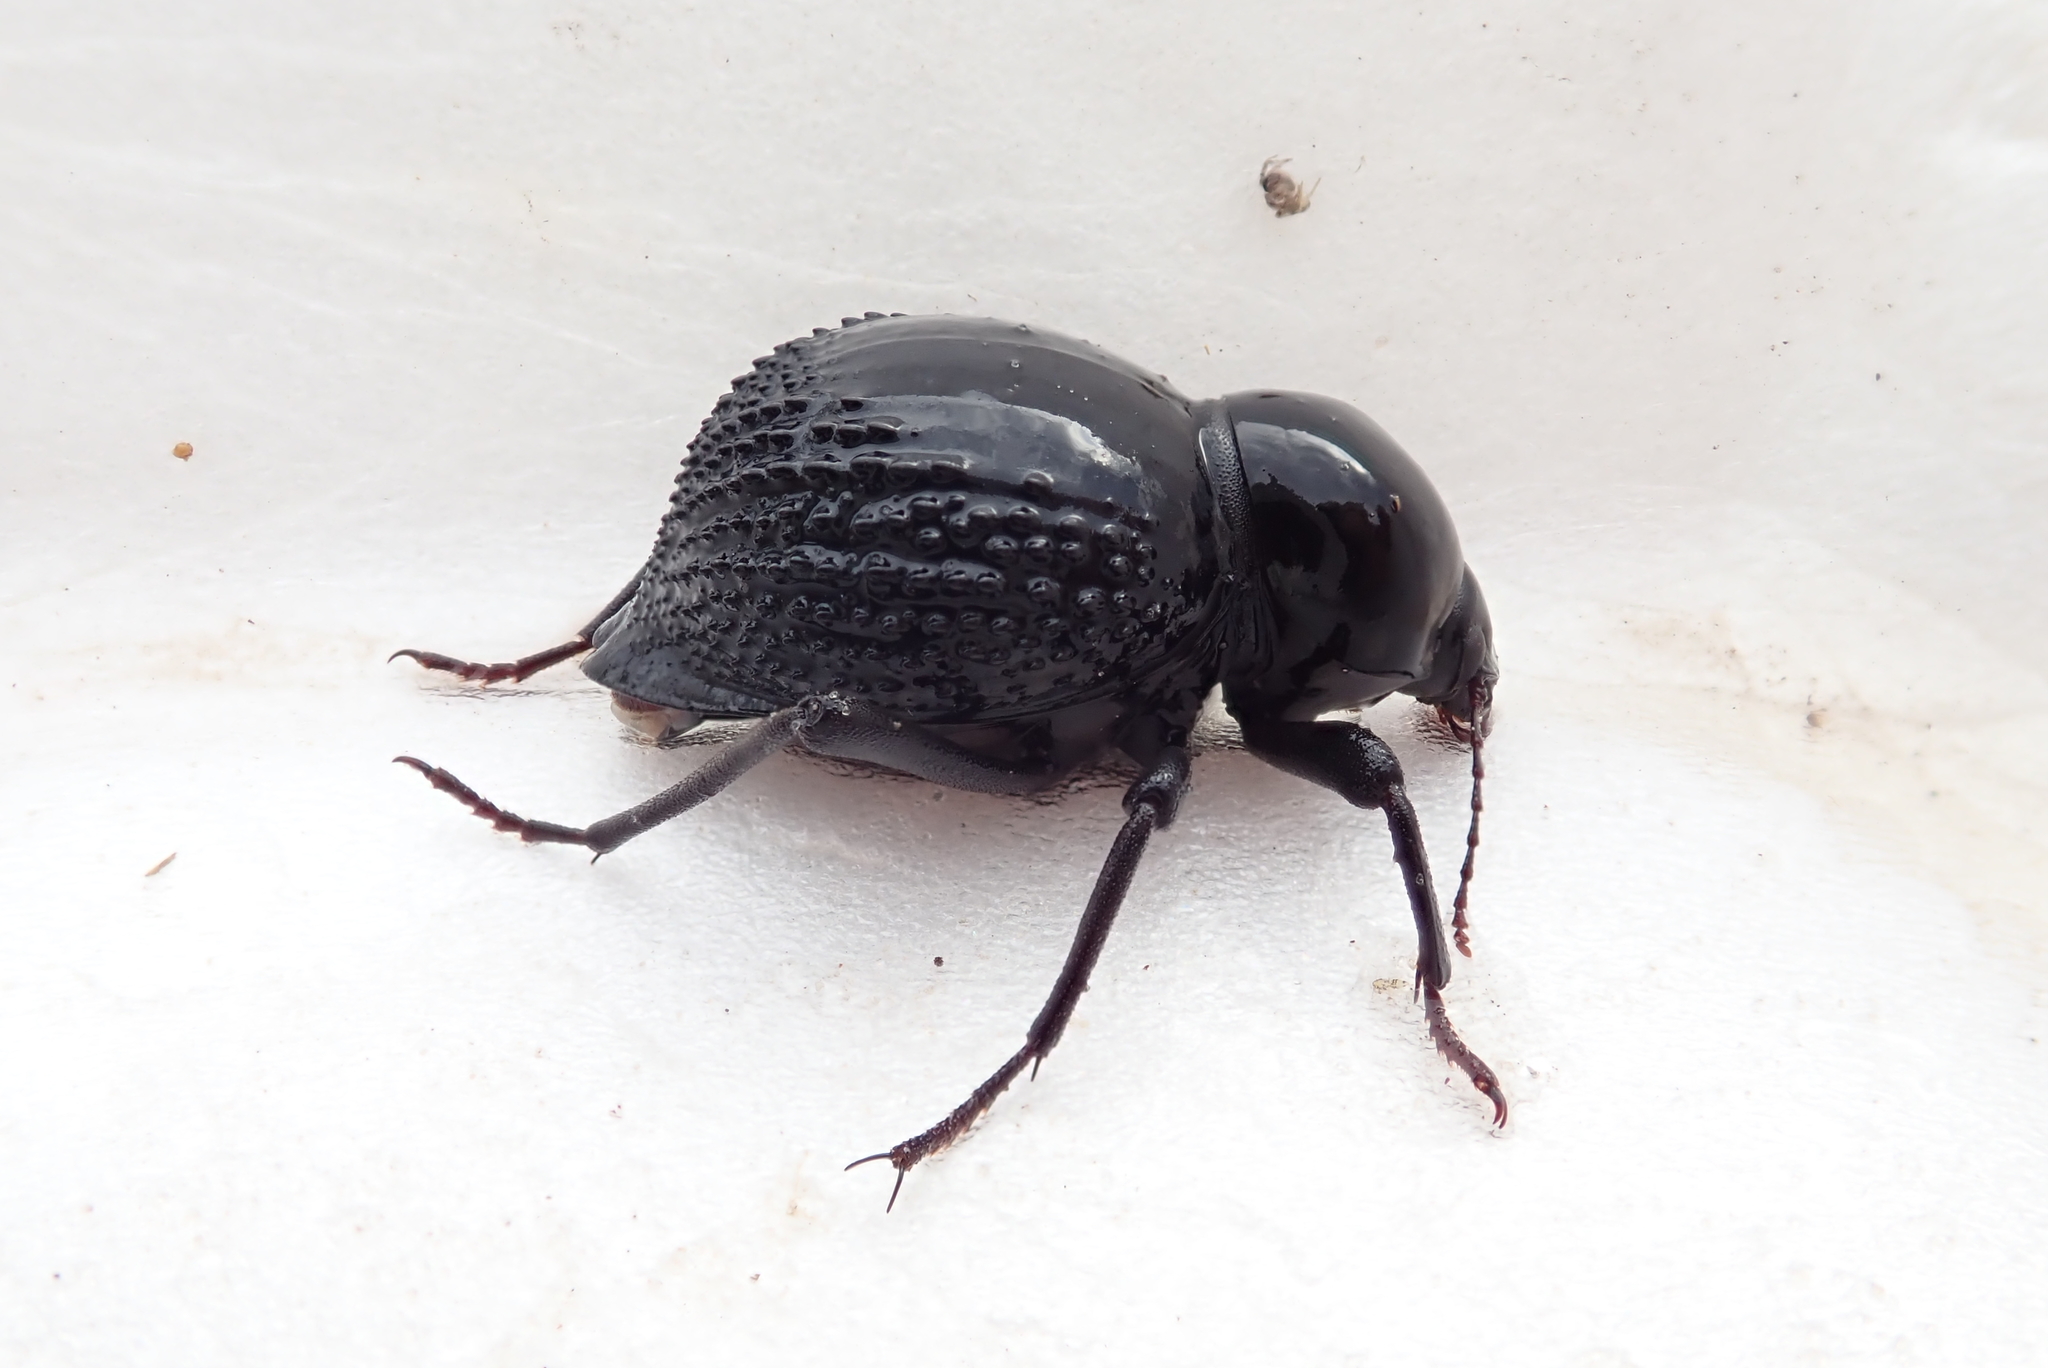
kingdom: Animalia
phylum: Arthropoda
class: Insecta
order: Coleoptera
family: Tenebrionidae
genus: Psammodes
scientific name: Psammodes vialis
